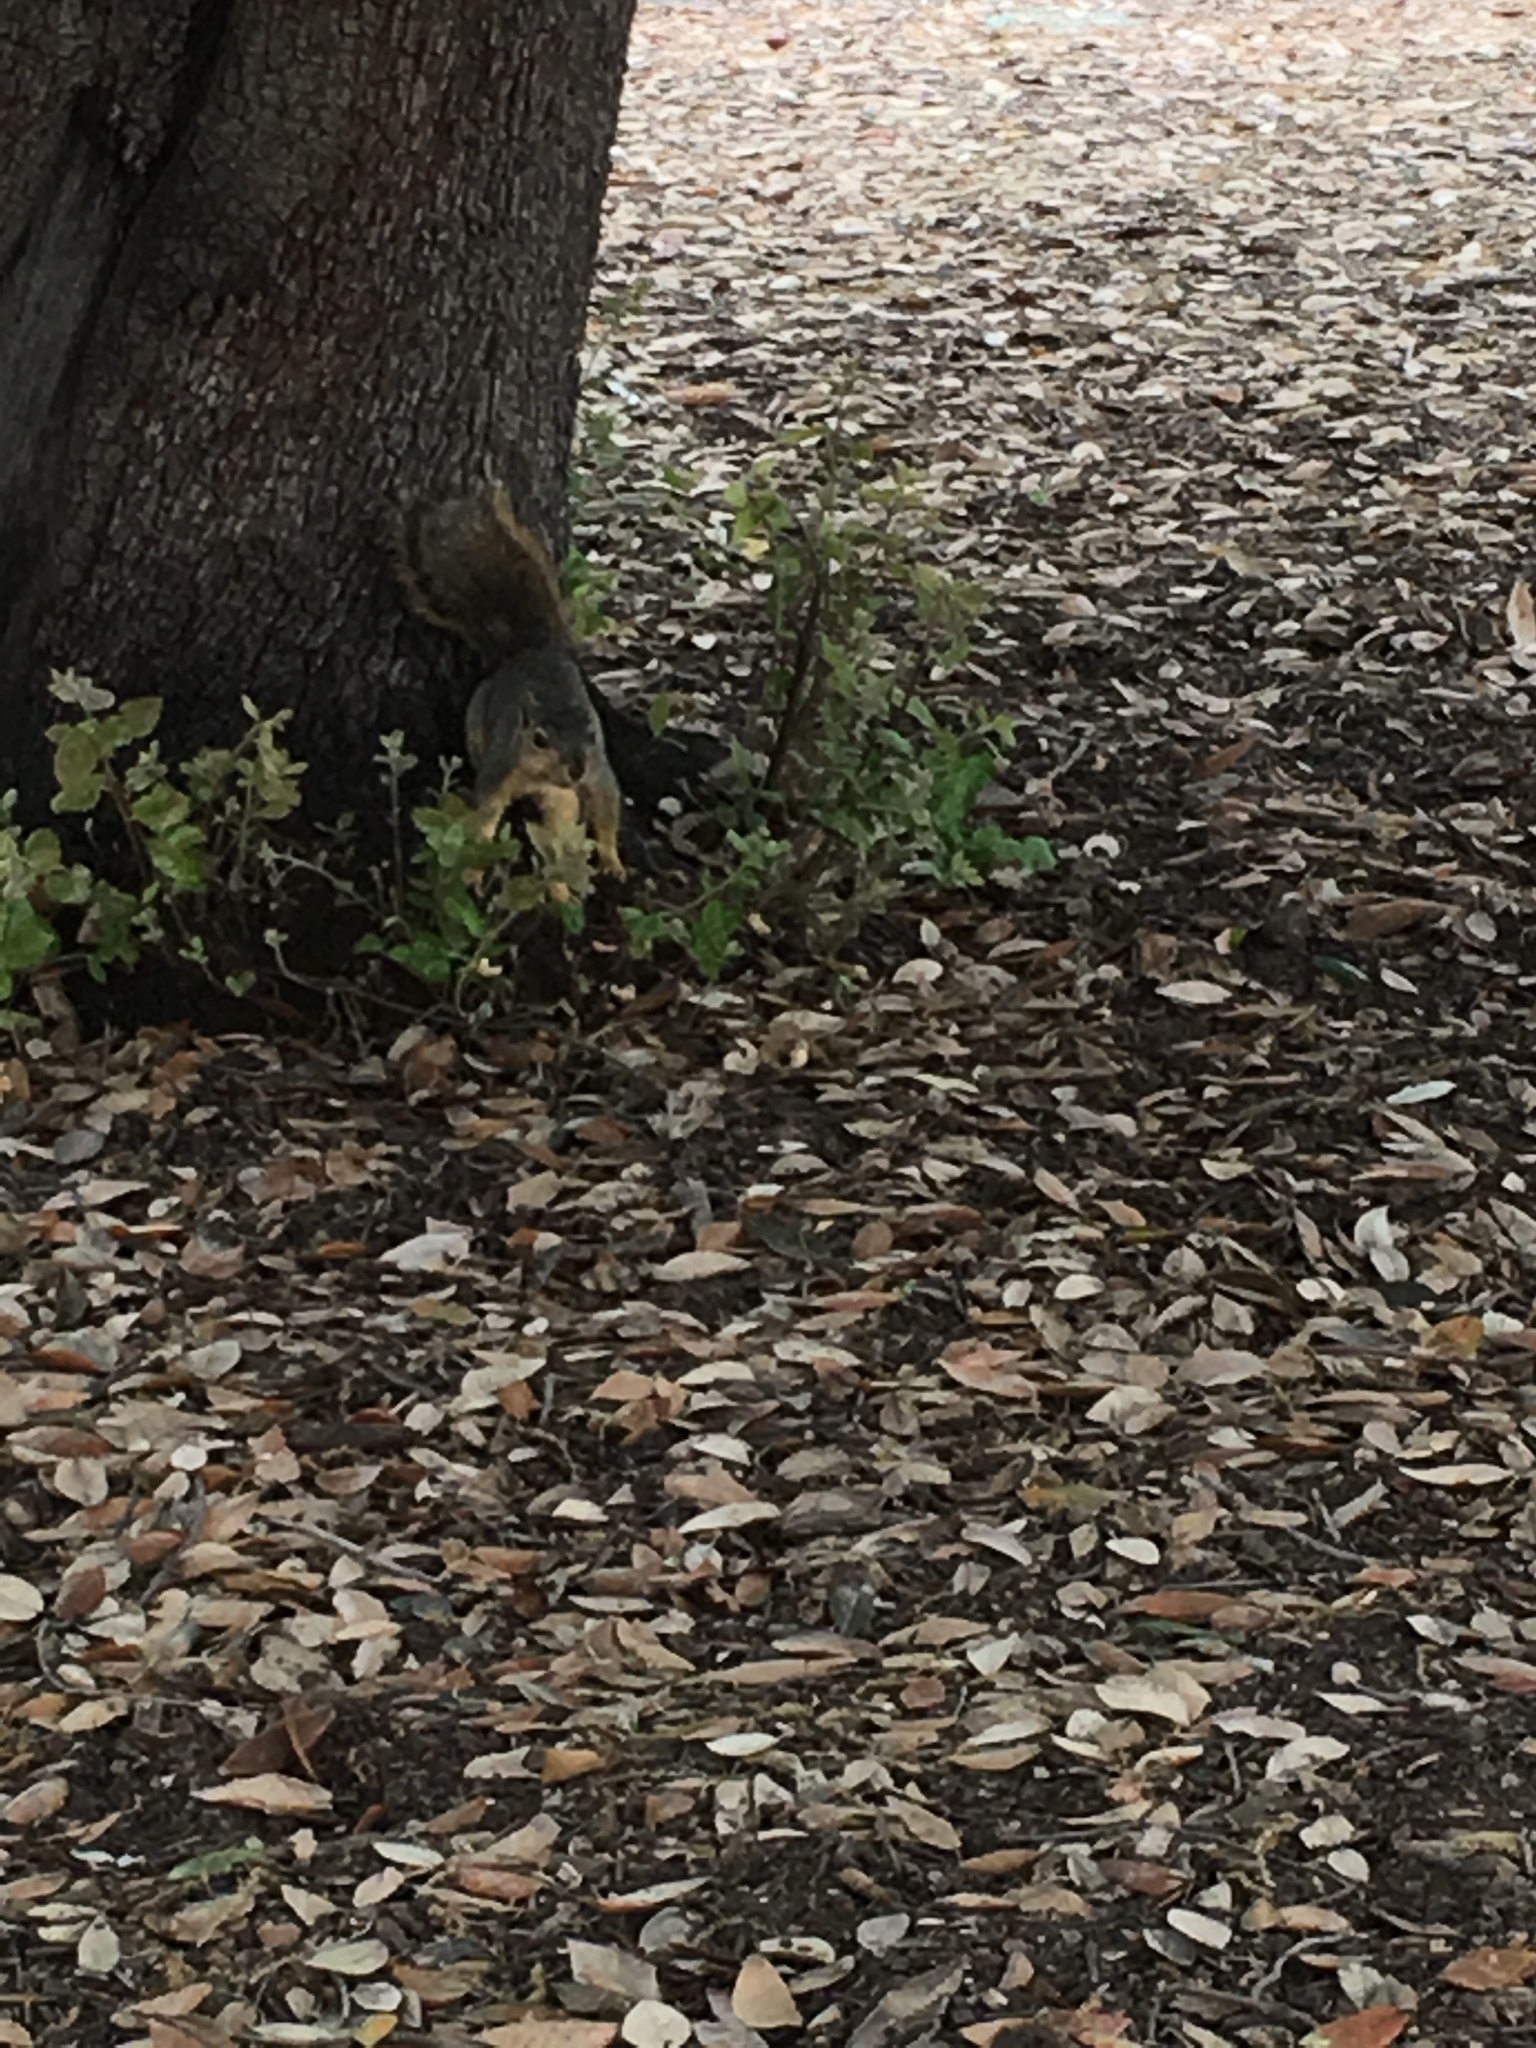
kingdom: Animalia
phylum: Chordata
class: Mammalia
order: Rodentia
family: Sciuridae
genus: Sciurus
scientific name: Sciurus niger
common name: Fox squirrel
